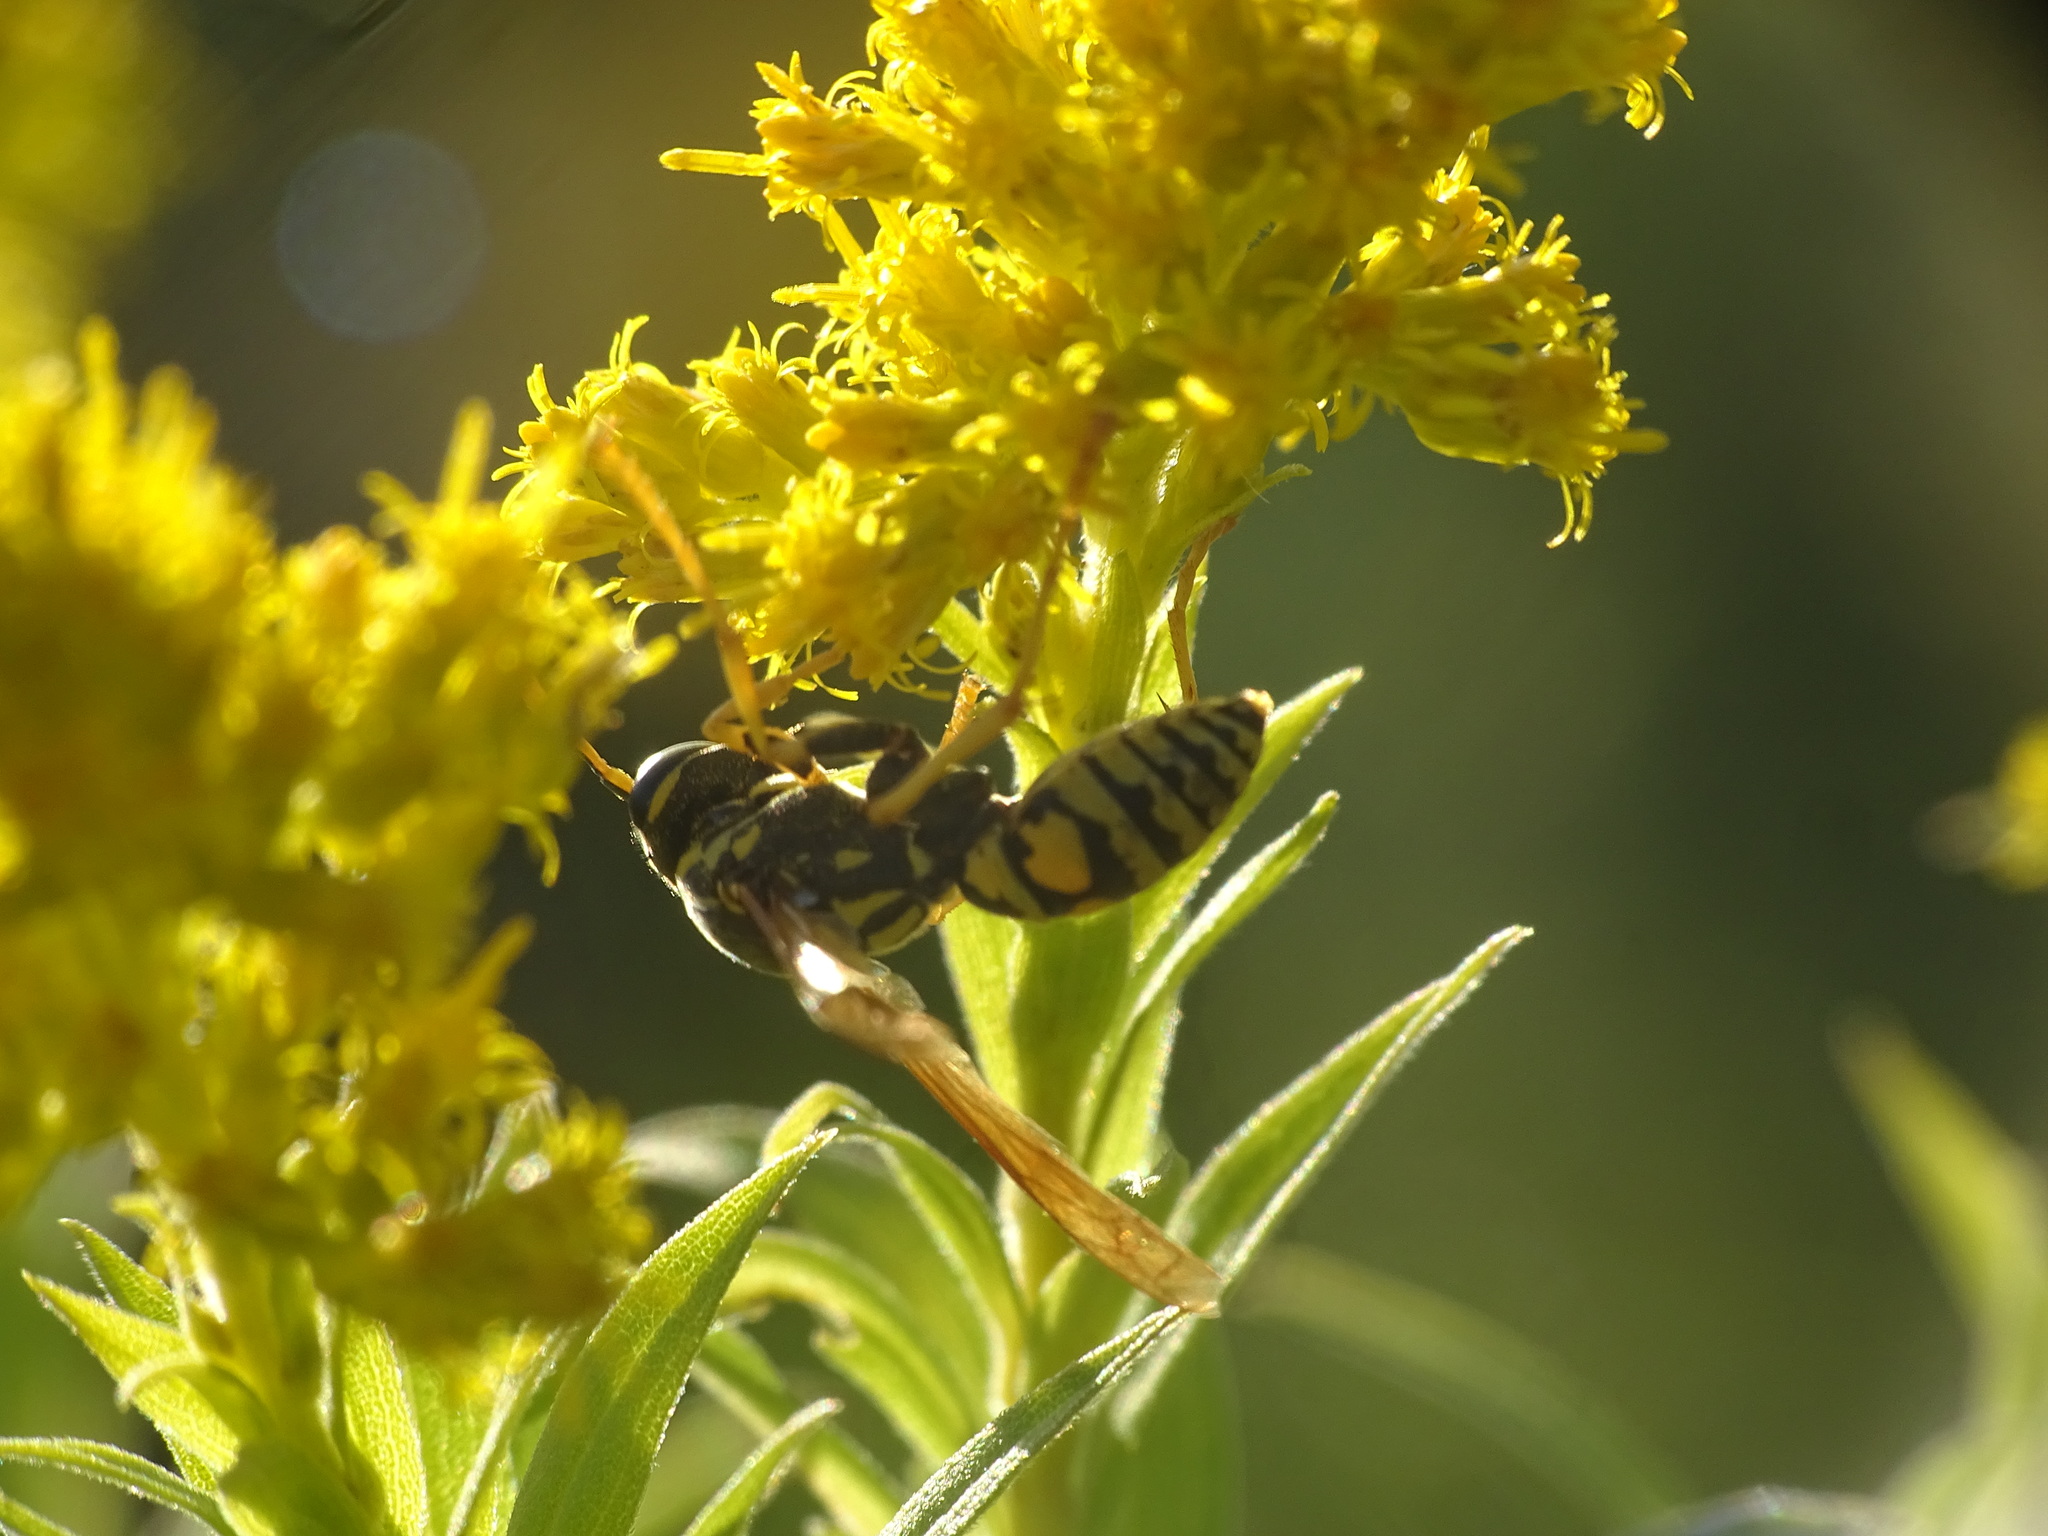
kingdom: Animalia
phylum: Arthropoda
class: Insecta
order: Hymenoptera
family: Eumenidae
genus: Polistes
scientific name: Polistes dominula
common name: Paper wasp
